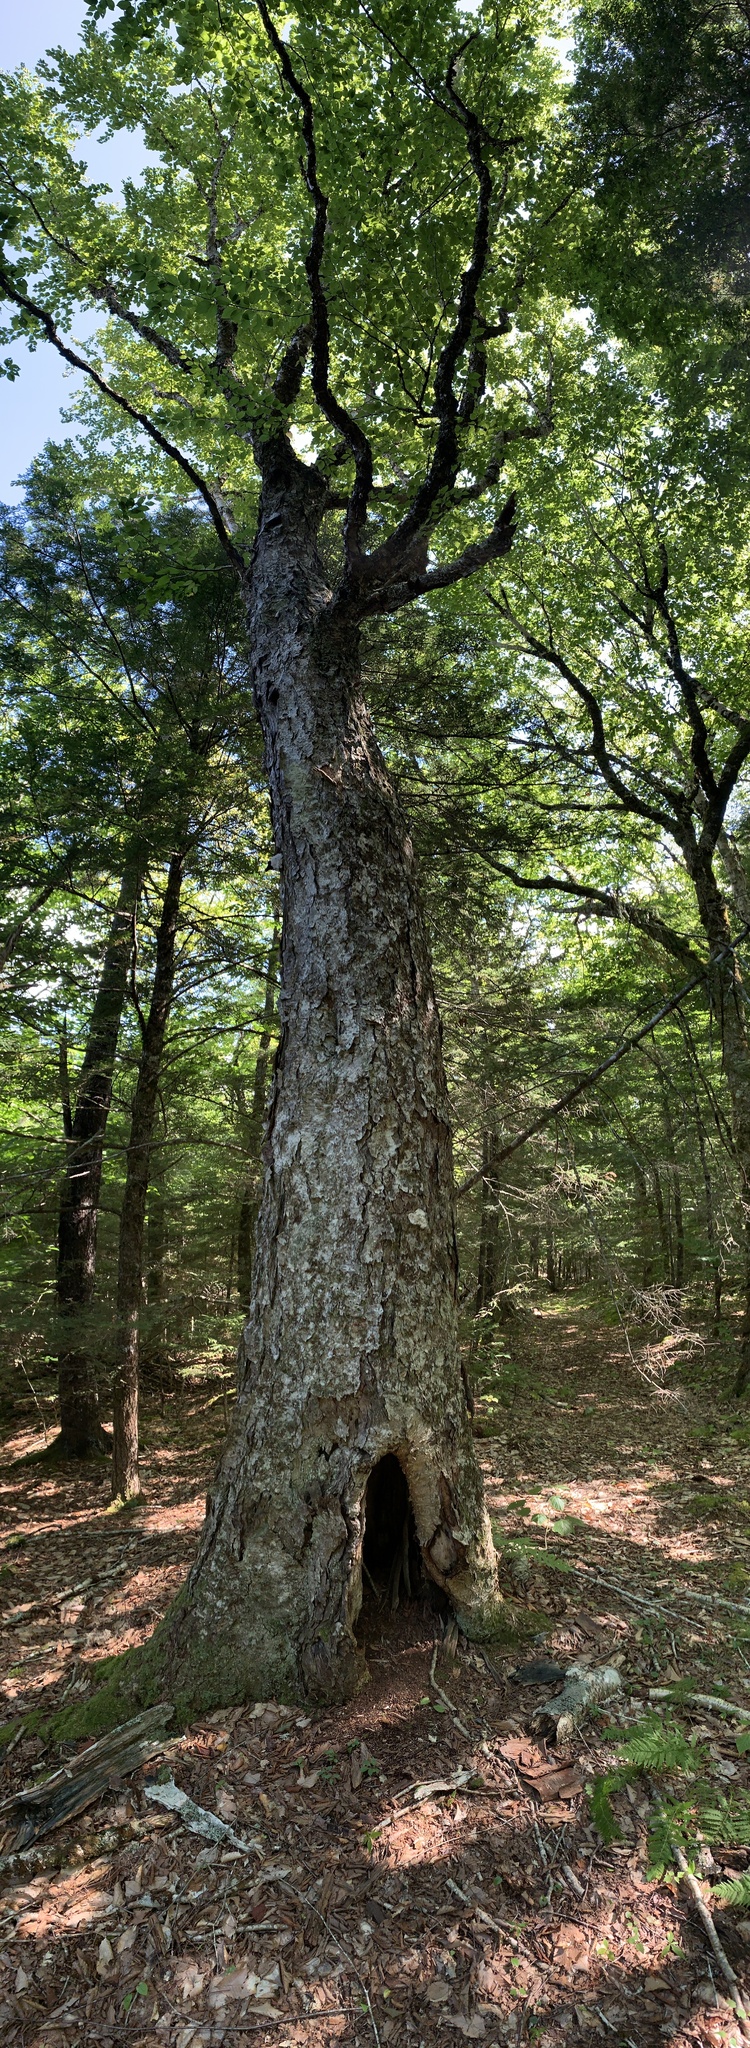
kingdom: Plantae
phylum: Tracheophyta
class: Magnoliopsida
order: Fagales
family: Betulaceae
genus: Betula
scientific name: Betula alleghaniensis
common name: Yellow birch
